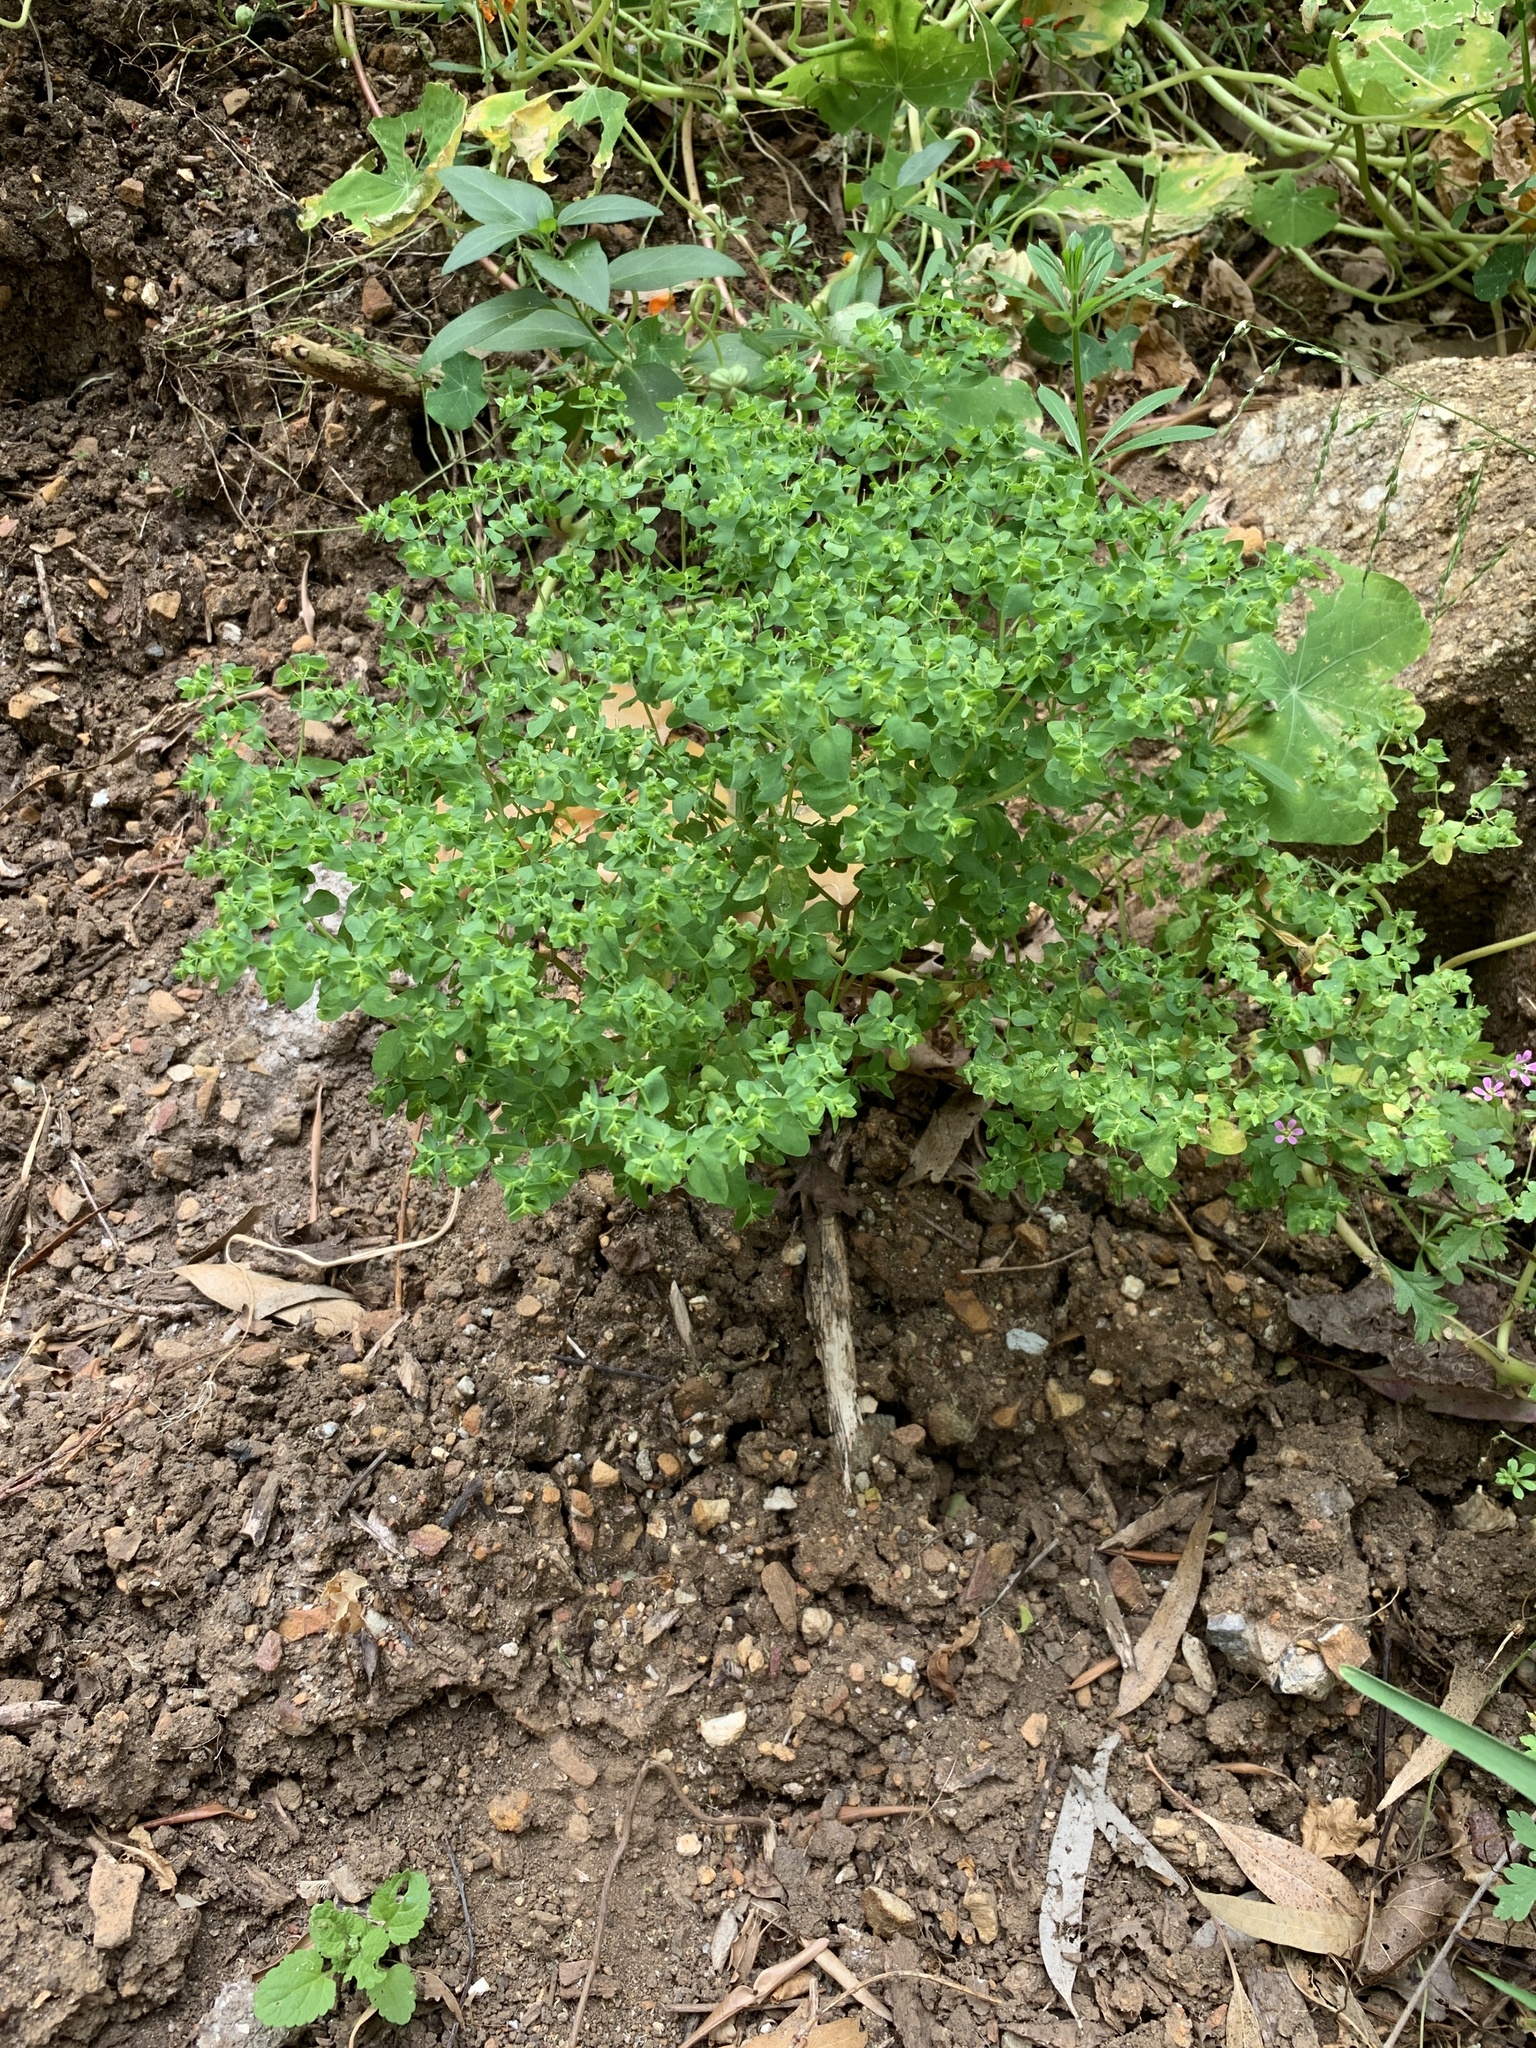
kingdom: Plantae
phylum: Tracheophyta
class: Magnoliopsida
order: Malpighiales
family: Euphorbiaceae
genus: Euphorbia
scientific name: Euphorbia peplus
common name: Petty spurge
